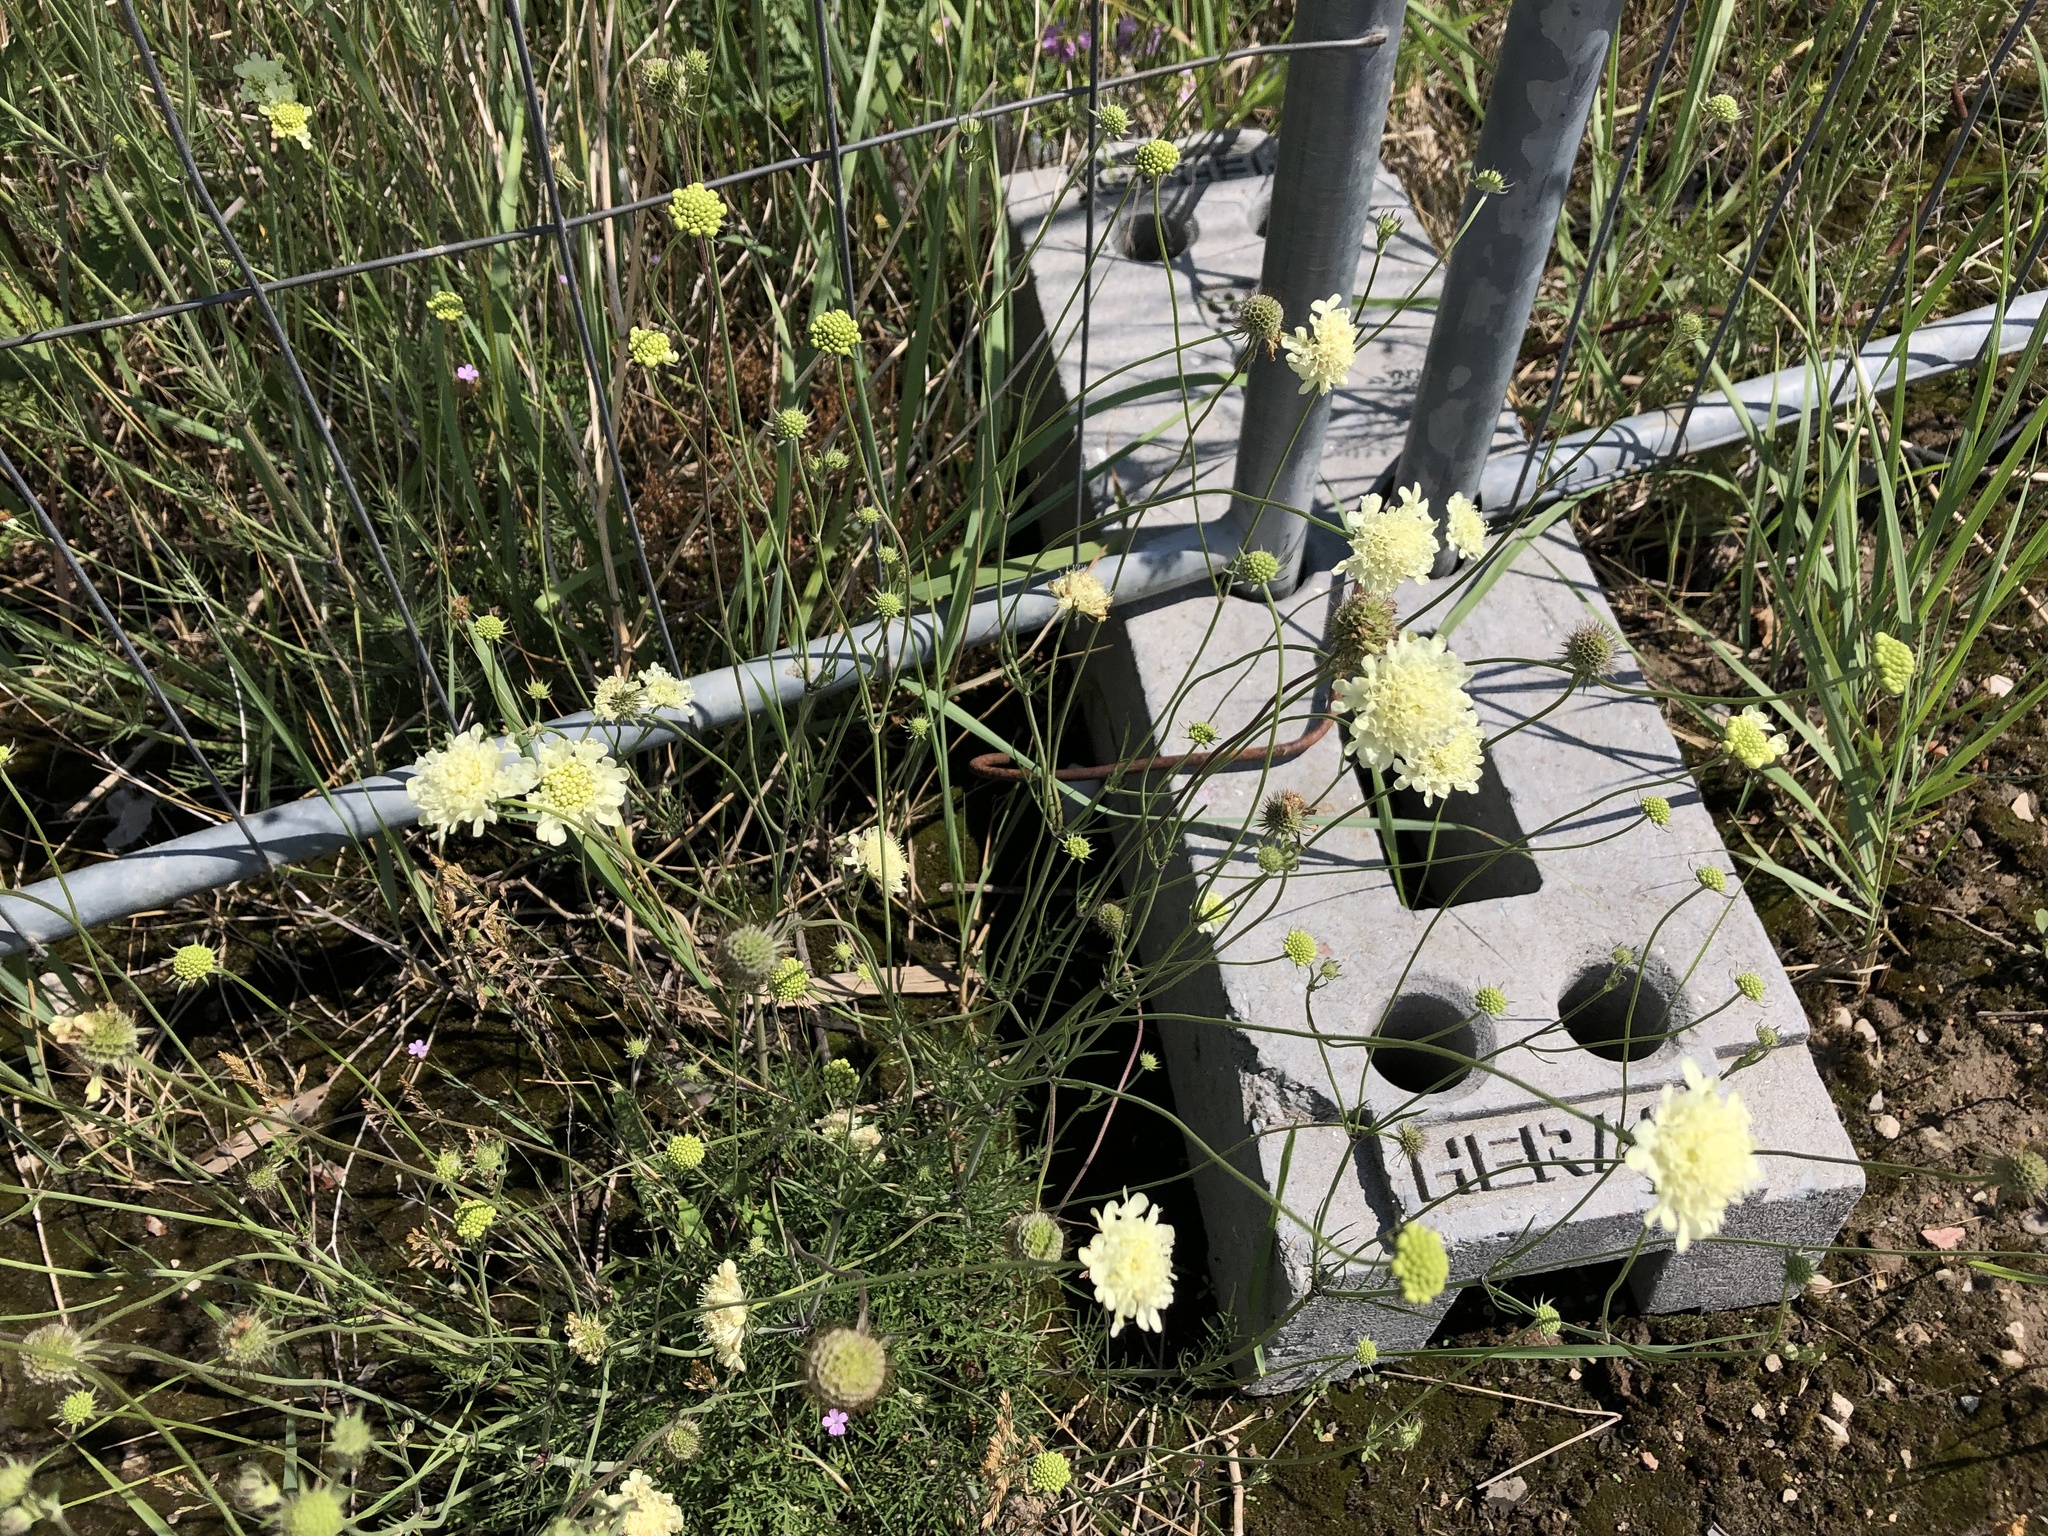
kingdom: Plantae
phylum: Tracheophyta
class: Magnoliopsida
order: Dipsacales
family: Caprifoliaceae
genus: Scabiosa
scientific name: Scabiosa ochroleuca
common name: Cream pincushions
